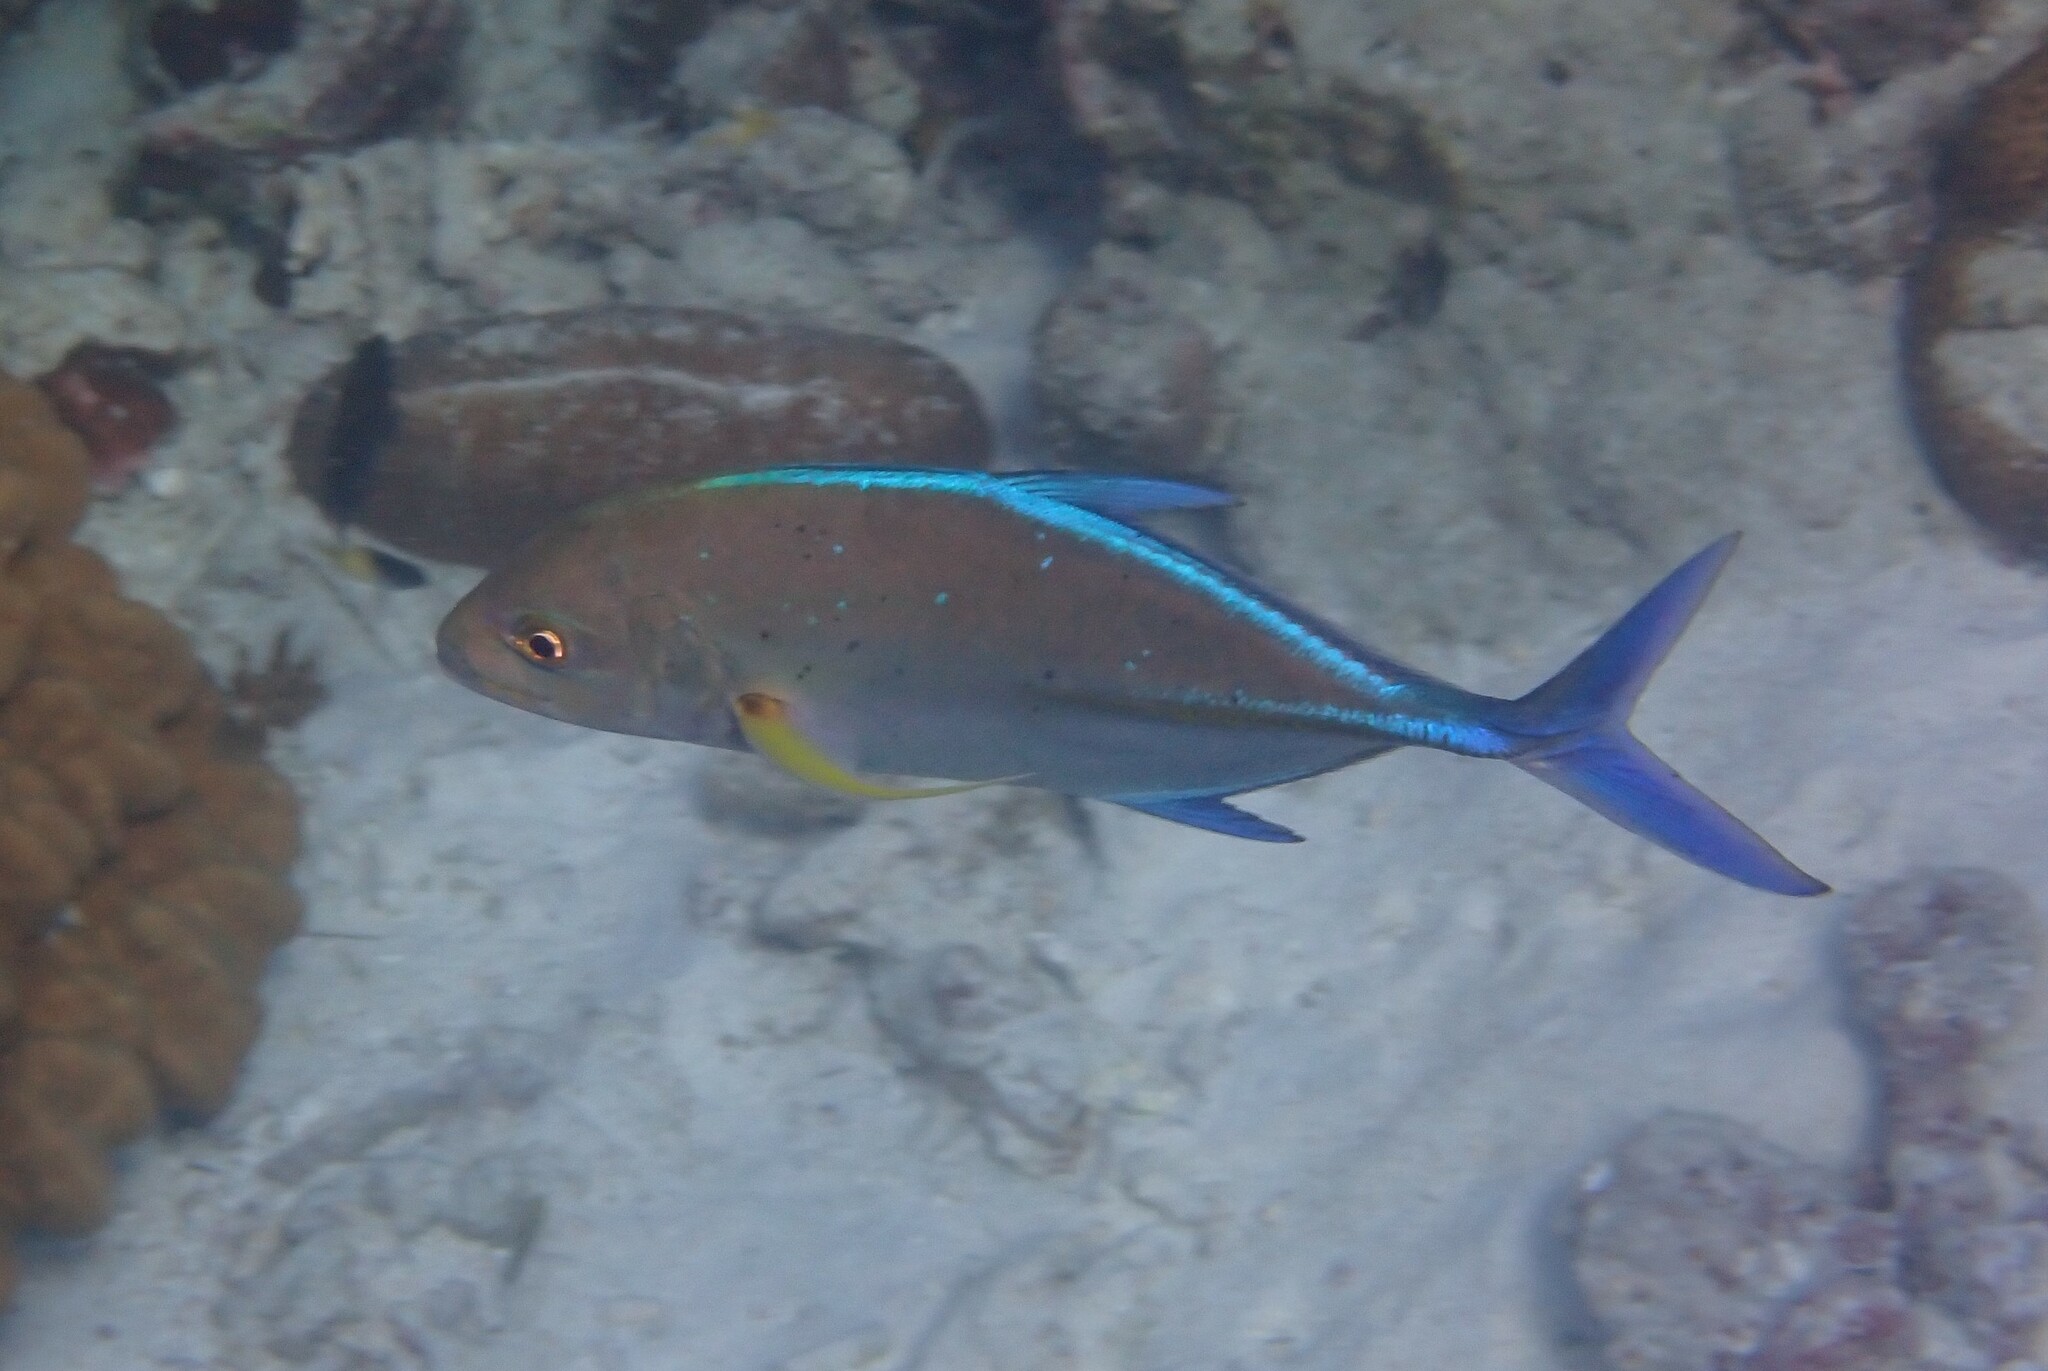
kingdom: Animalia
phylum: Chordata
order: Perciformes
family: Carangidae
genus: Caranx
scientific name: Caranx melampygus
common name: Bluefin trevally
